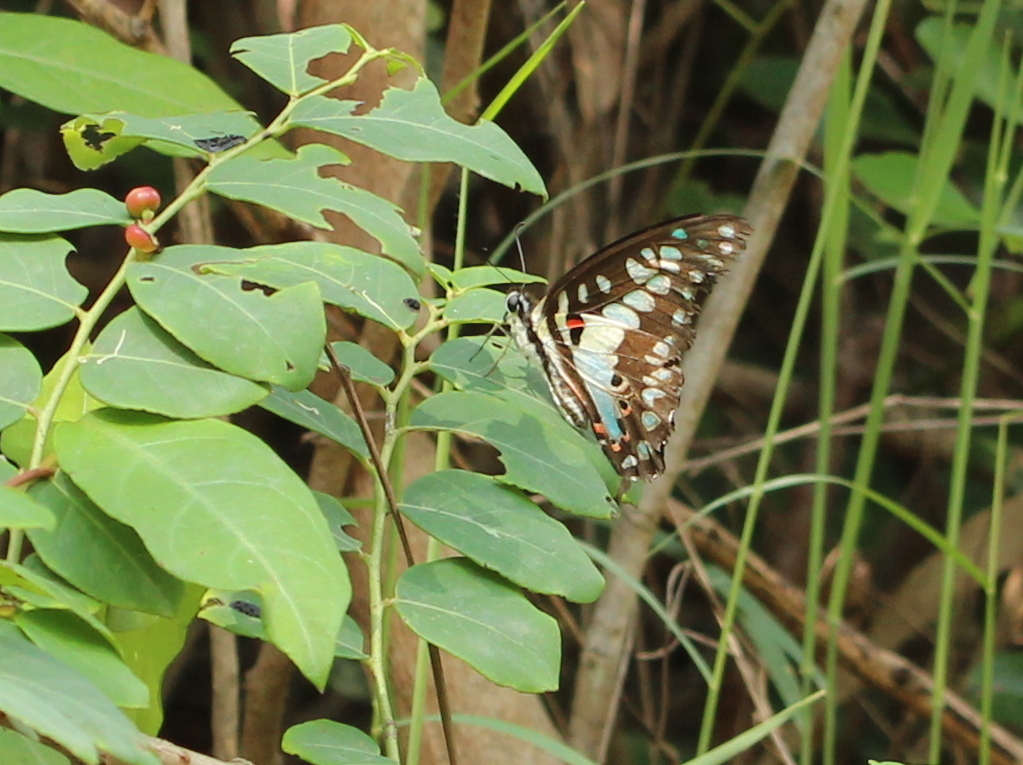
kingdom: Animalia
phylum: Arthropoda
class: Insecta
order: Lepidoptera
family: Papilionidae
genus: Graphium
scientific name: Graphium doson
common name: Common jay
